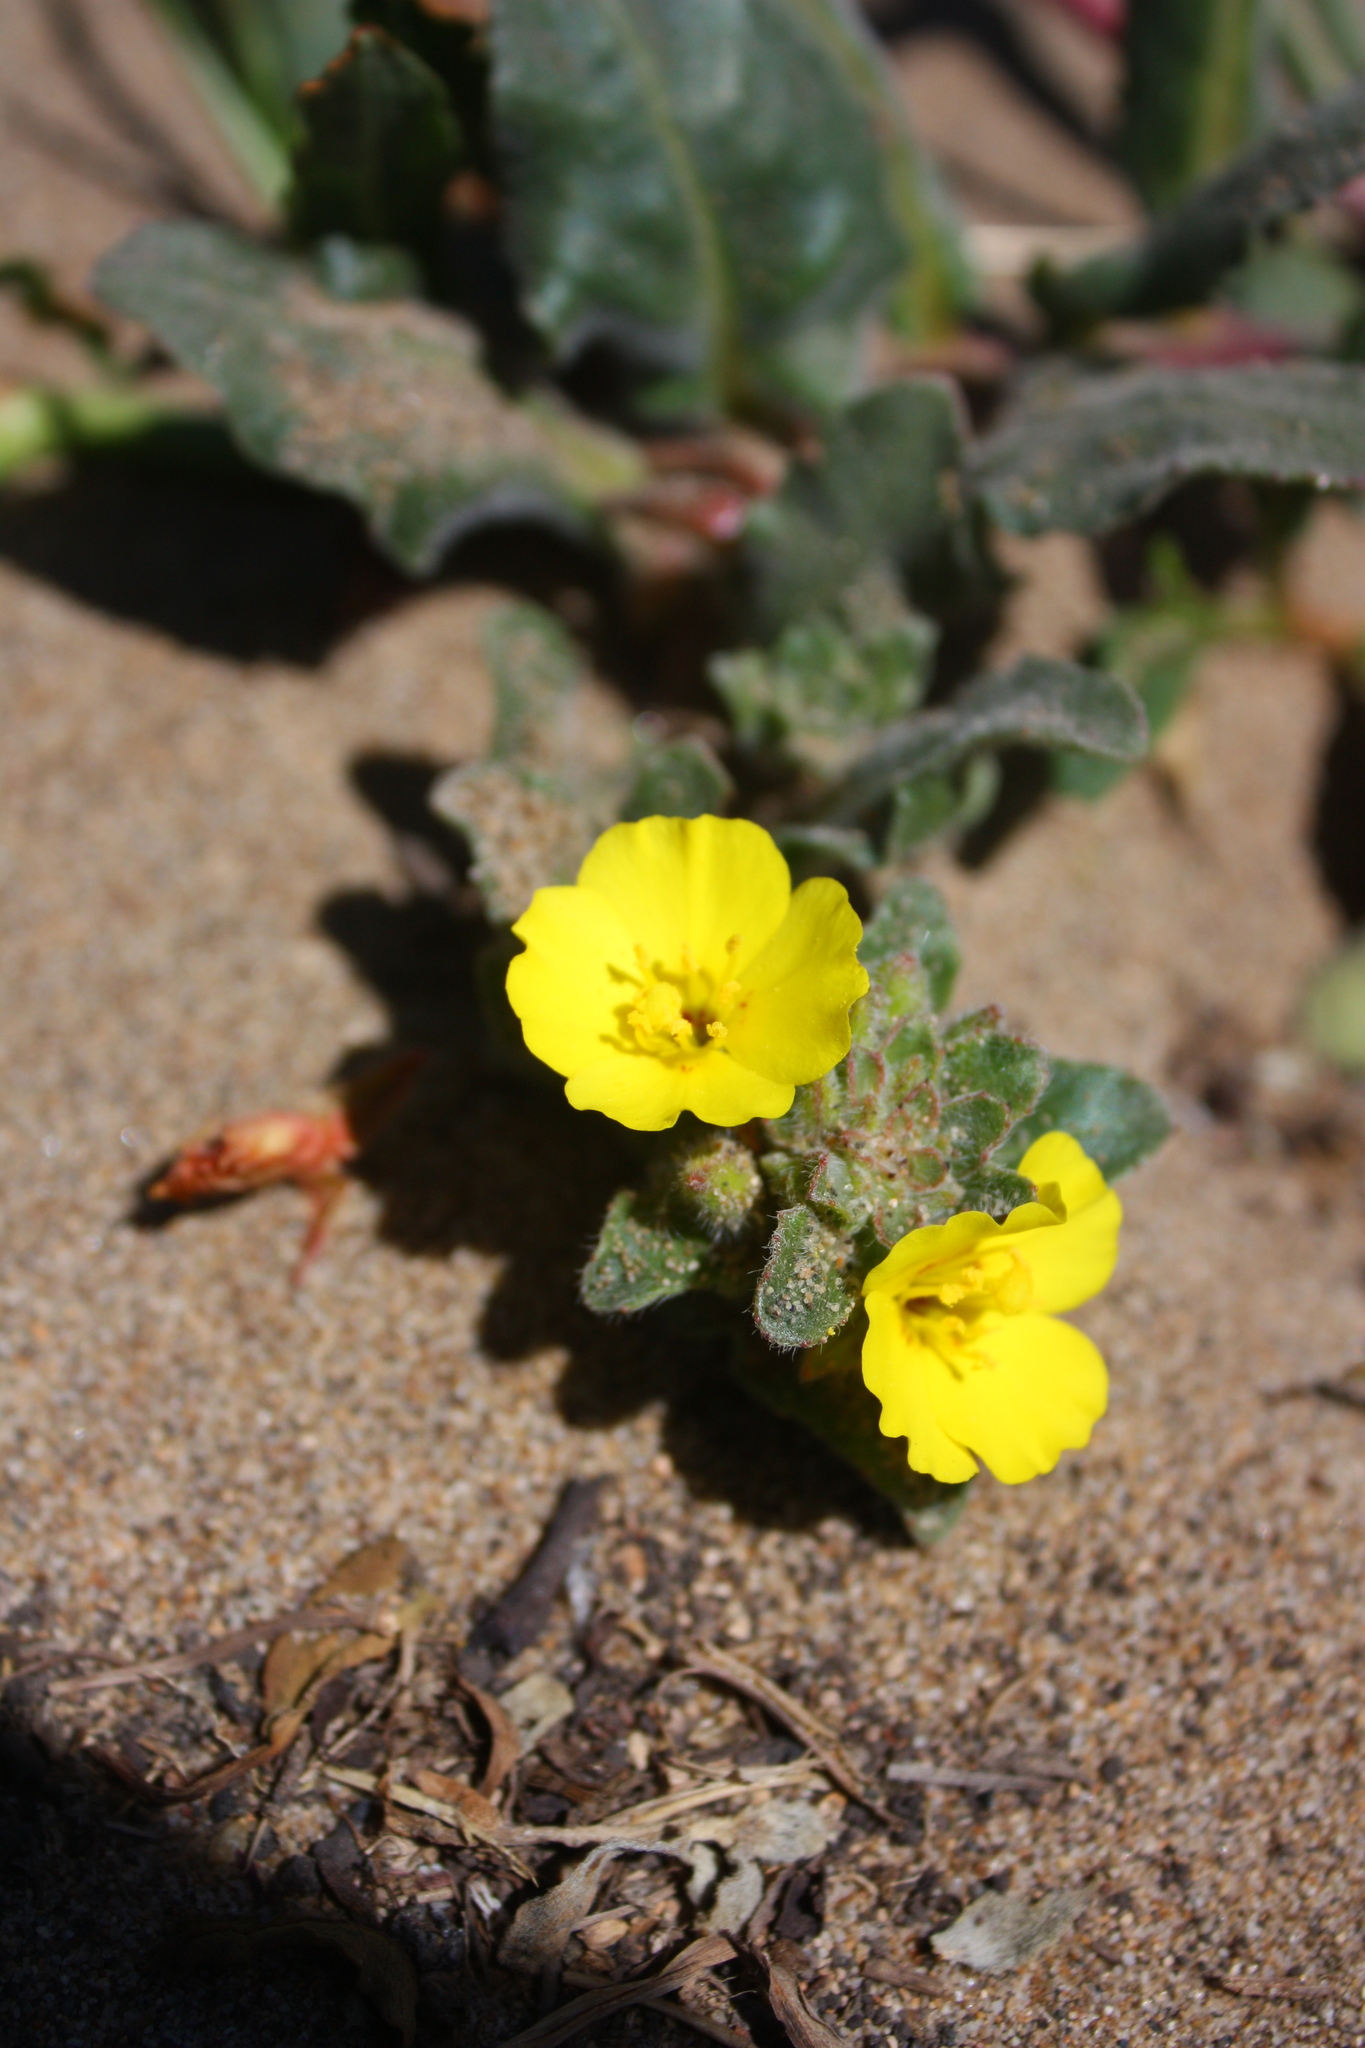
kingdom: Plantae
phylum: Tracheophyta
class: Magnoliopsida
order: Myrtales
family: Onagraceae
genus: Camissoniopsis
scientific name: Camissoniopsis cheiranthifolia
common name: Beach suncup
